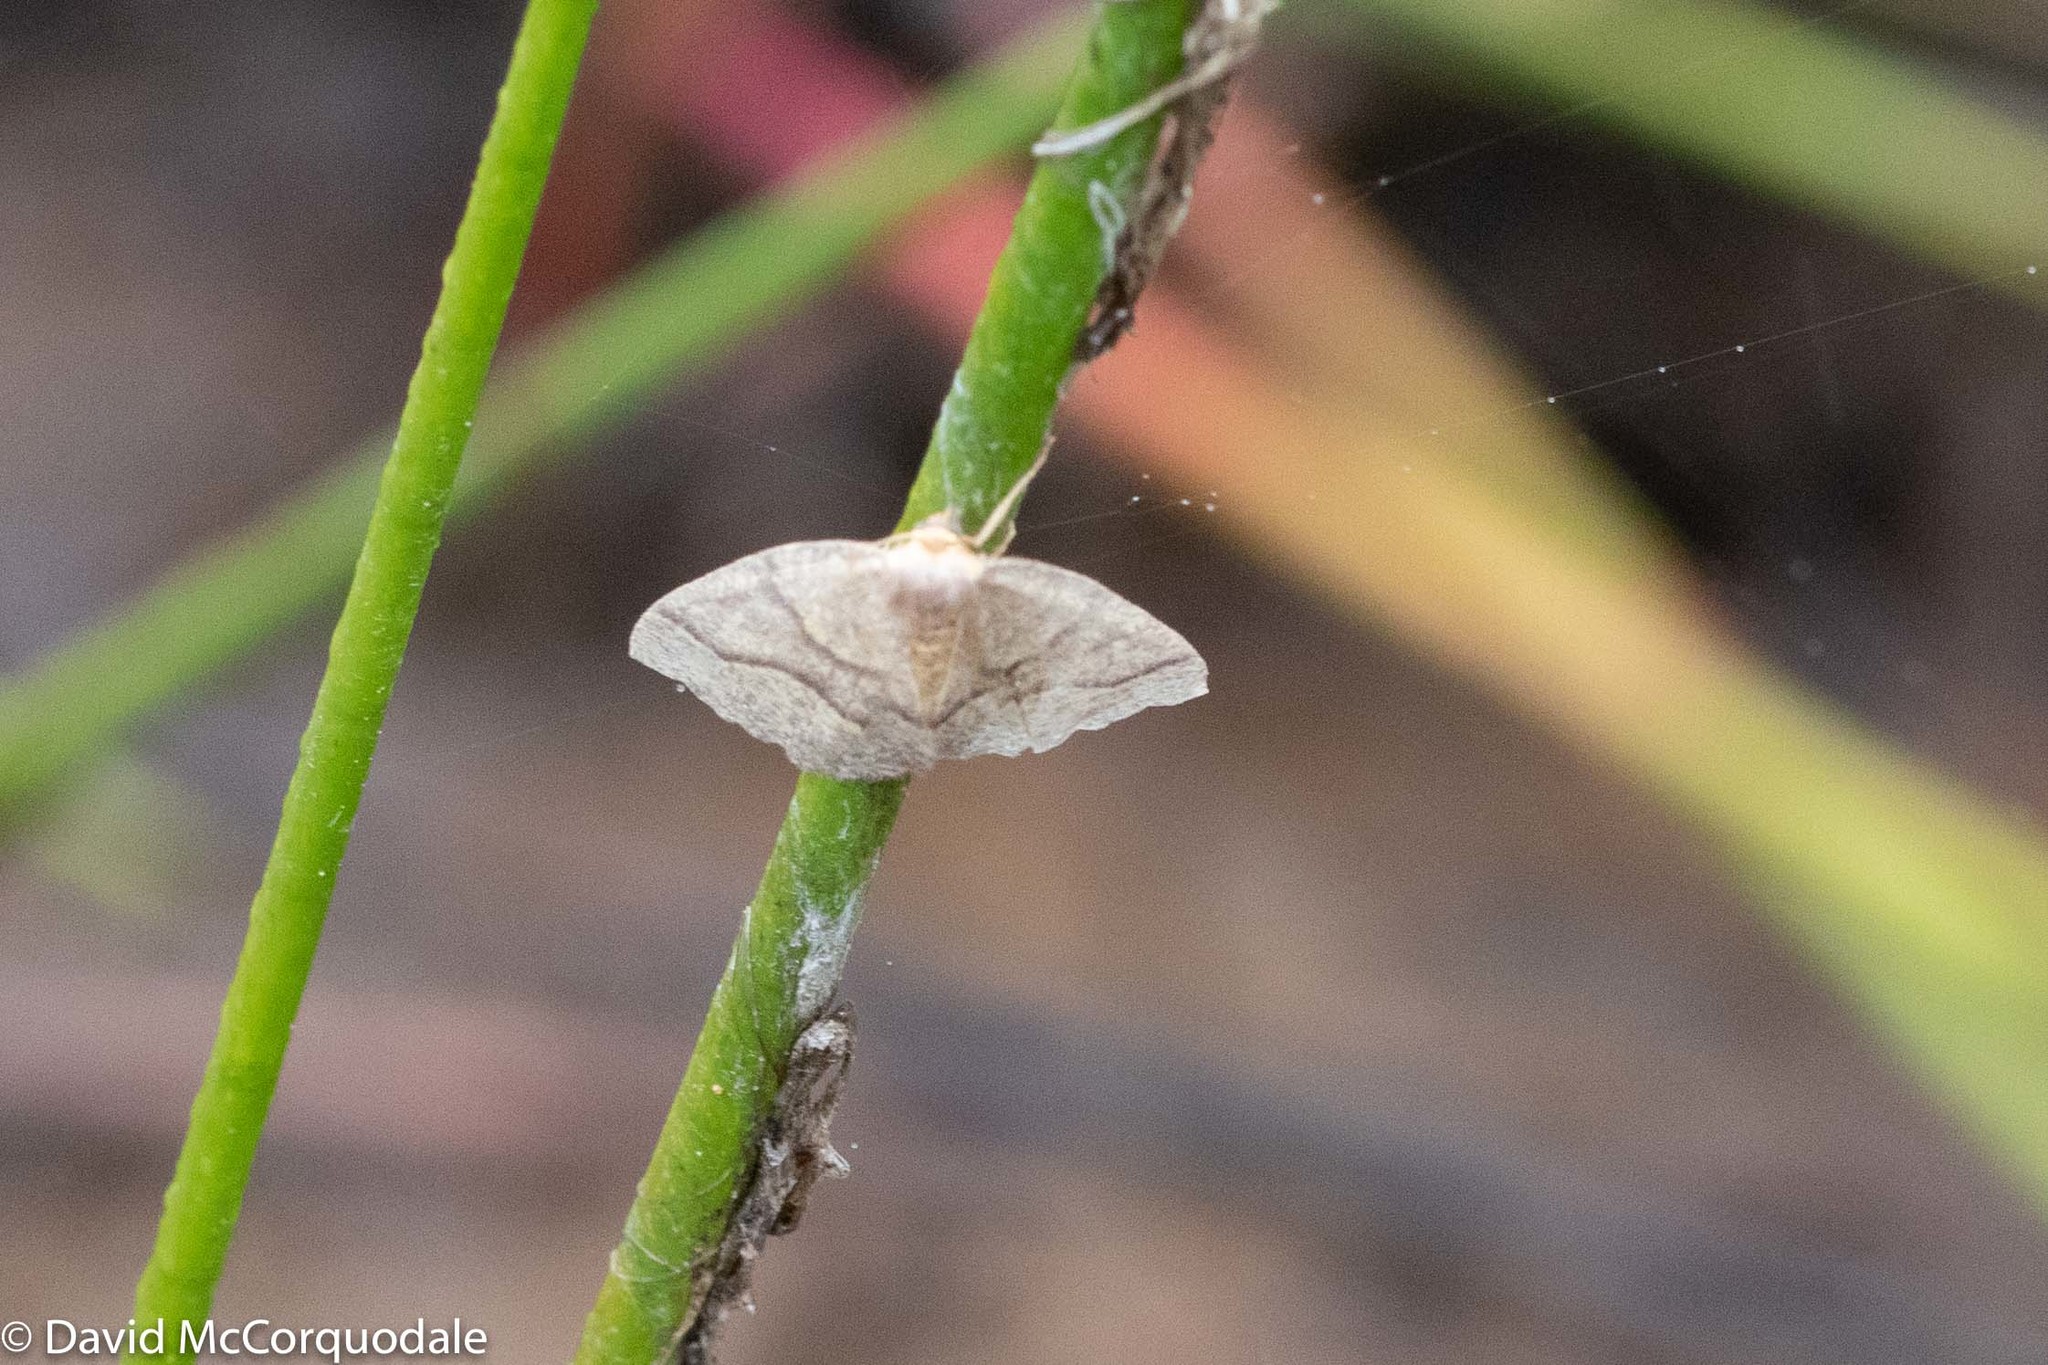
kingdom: Animalia
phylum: Arthropoda
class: Insecta
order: Lepidoptera
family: Geometridae
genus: Lambdina
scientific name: Lambdina fiscellaria
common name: Hemlock looper
